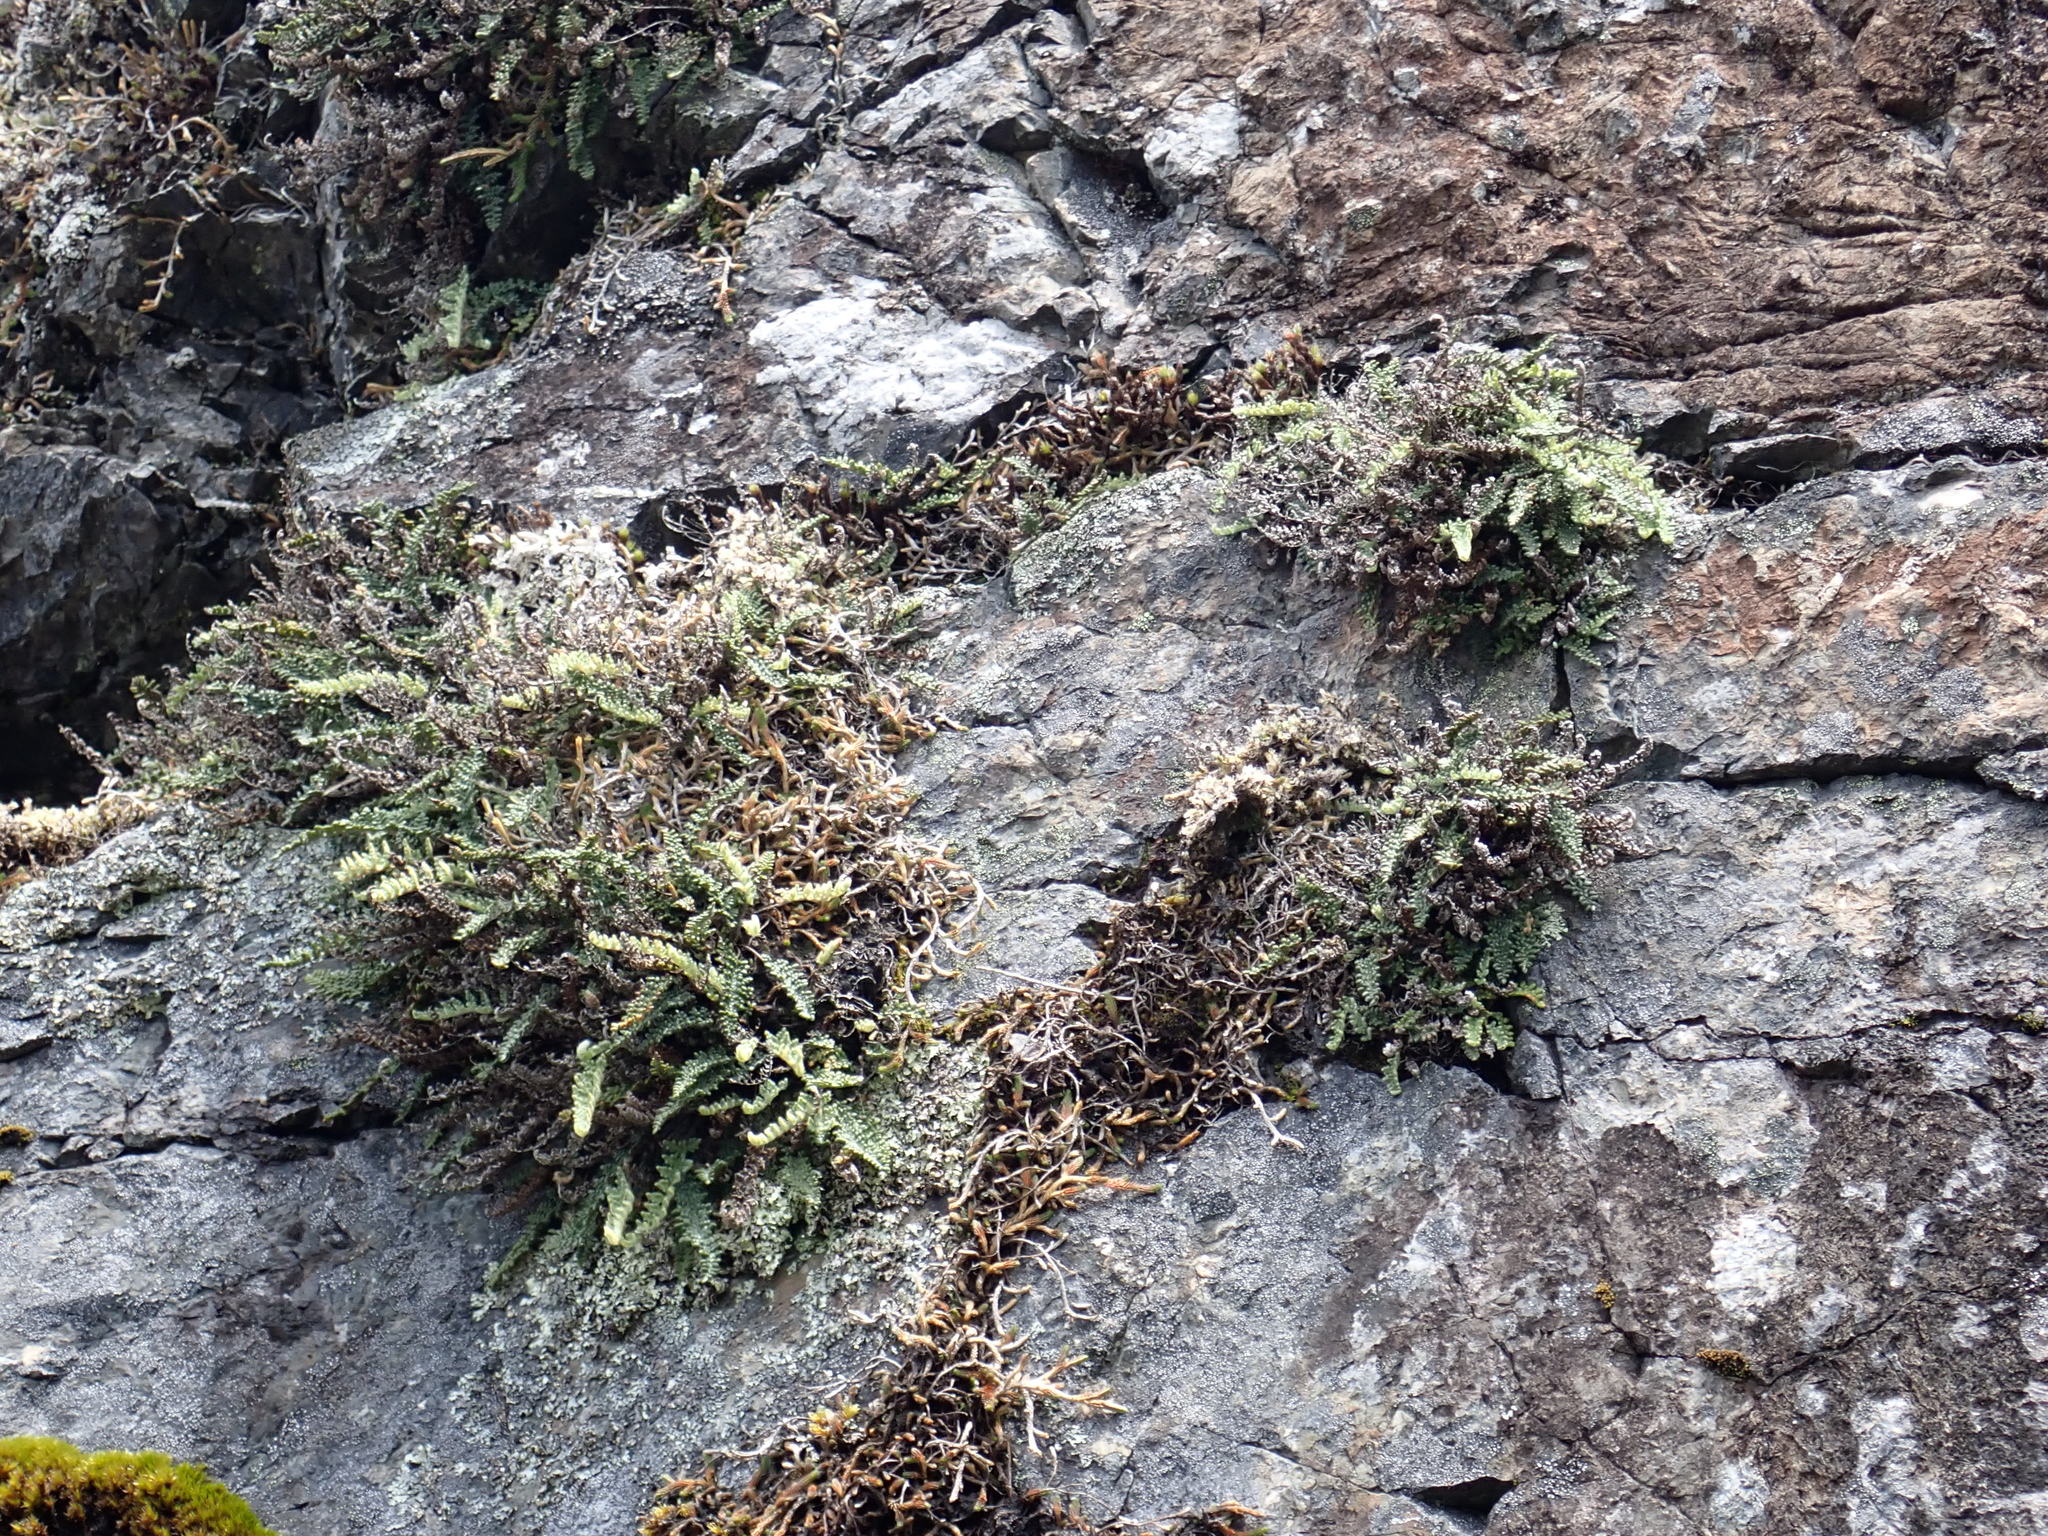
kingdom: Plantae
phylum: Tracheophyta
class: Polypodiopsida
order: Polypodiales
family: Pteridaceae
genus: Myriopteris
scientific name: Myriopteris gracillima
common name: Lace fern
